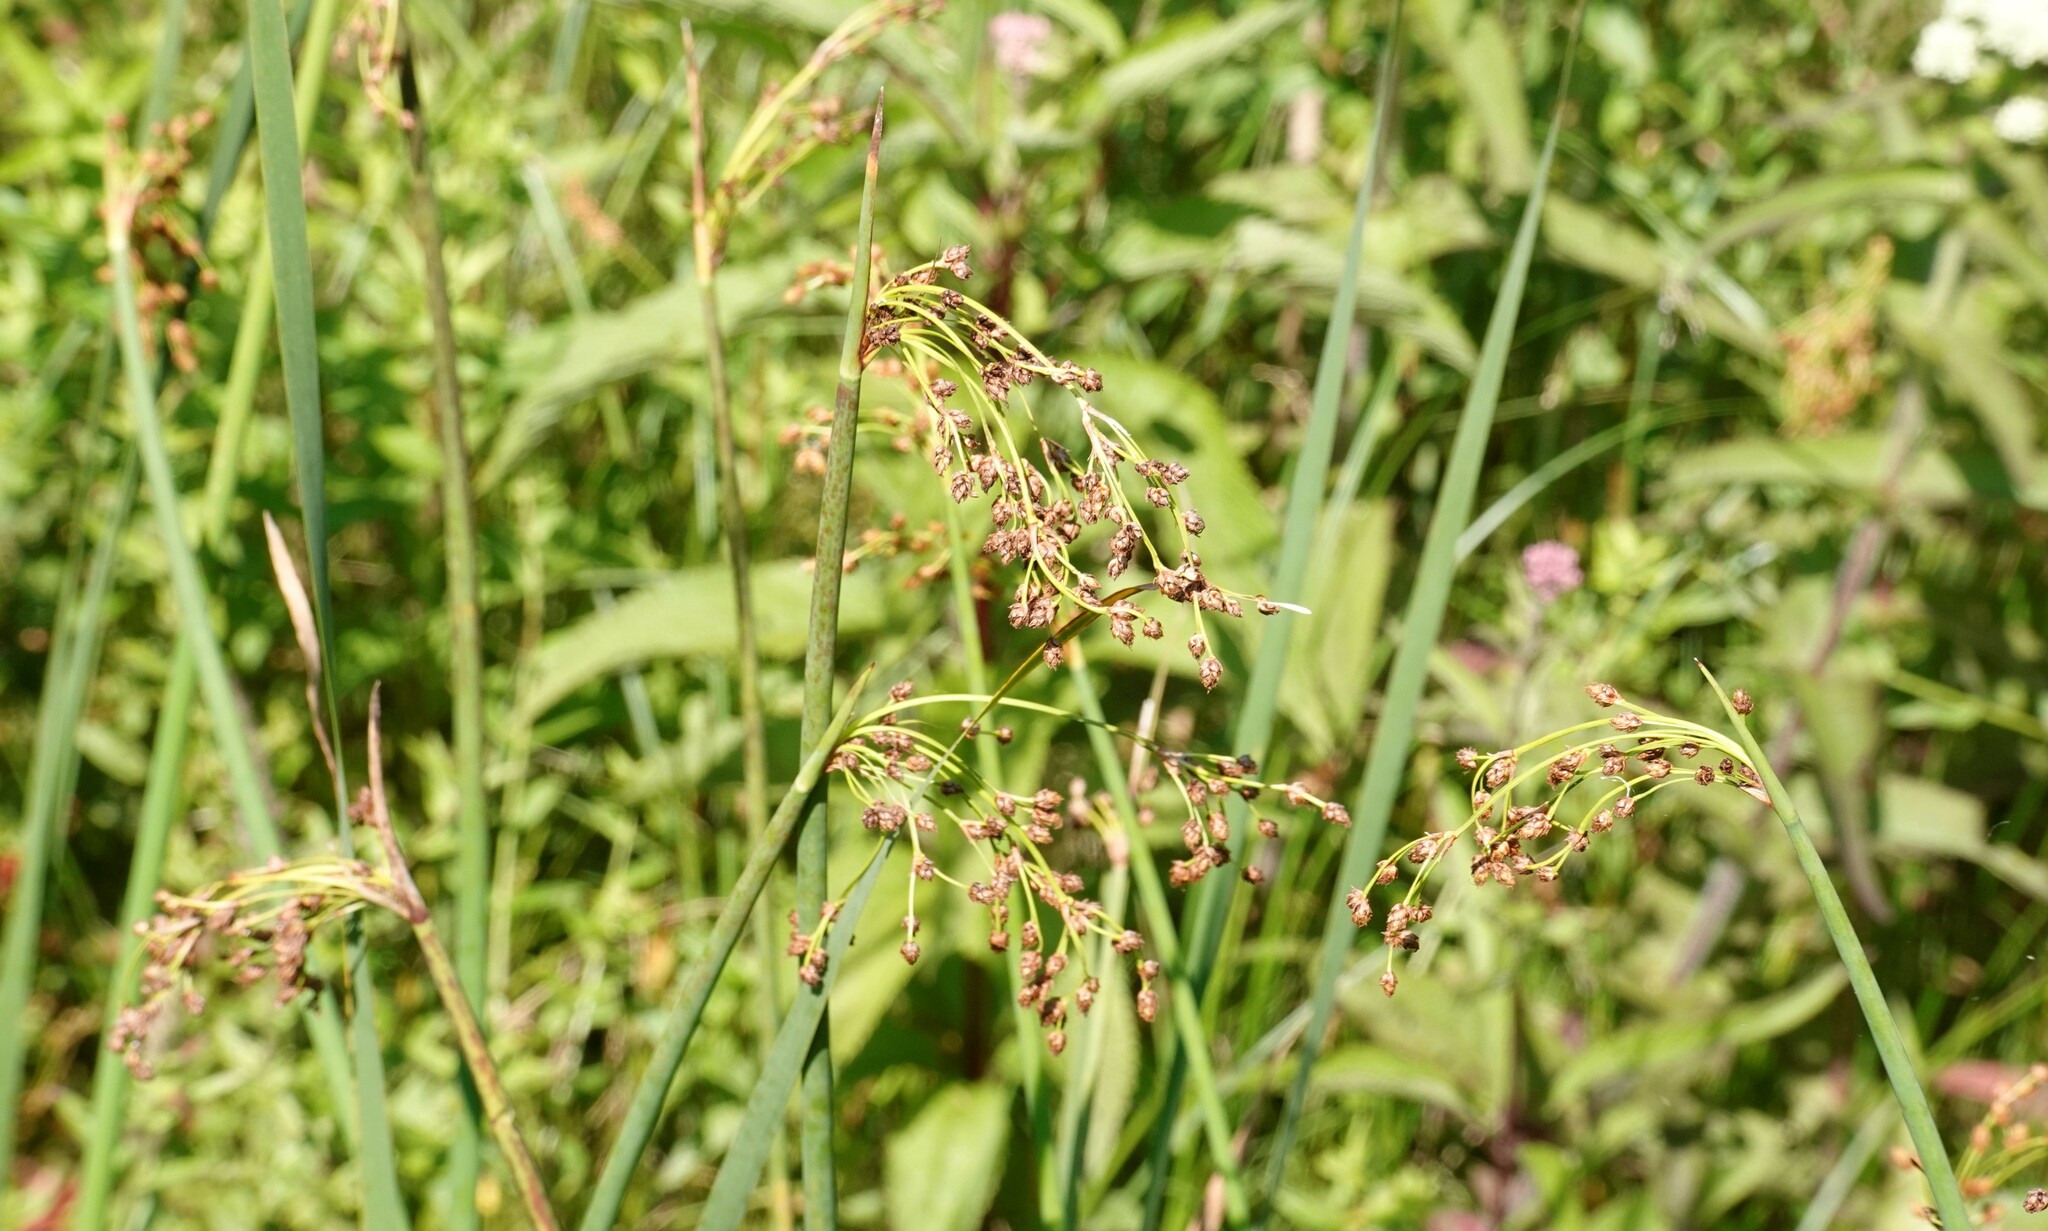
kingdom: Plantae
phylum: Tracheophyta
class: Liliopsida
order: Poales
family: Cyperaceae
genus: Schoenoplectus
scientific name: Schoenoplectus tabernaemontani
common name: Grey club-rush
